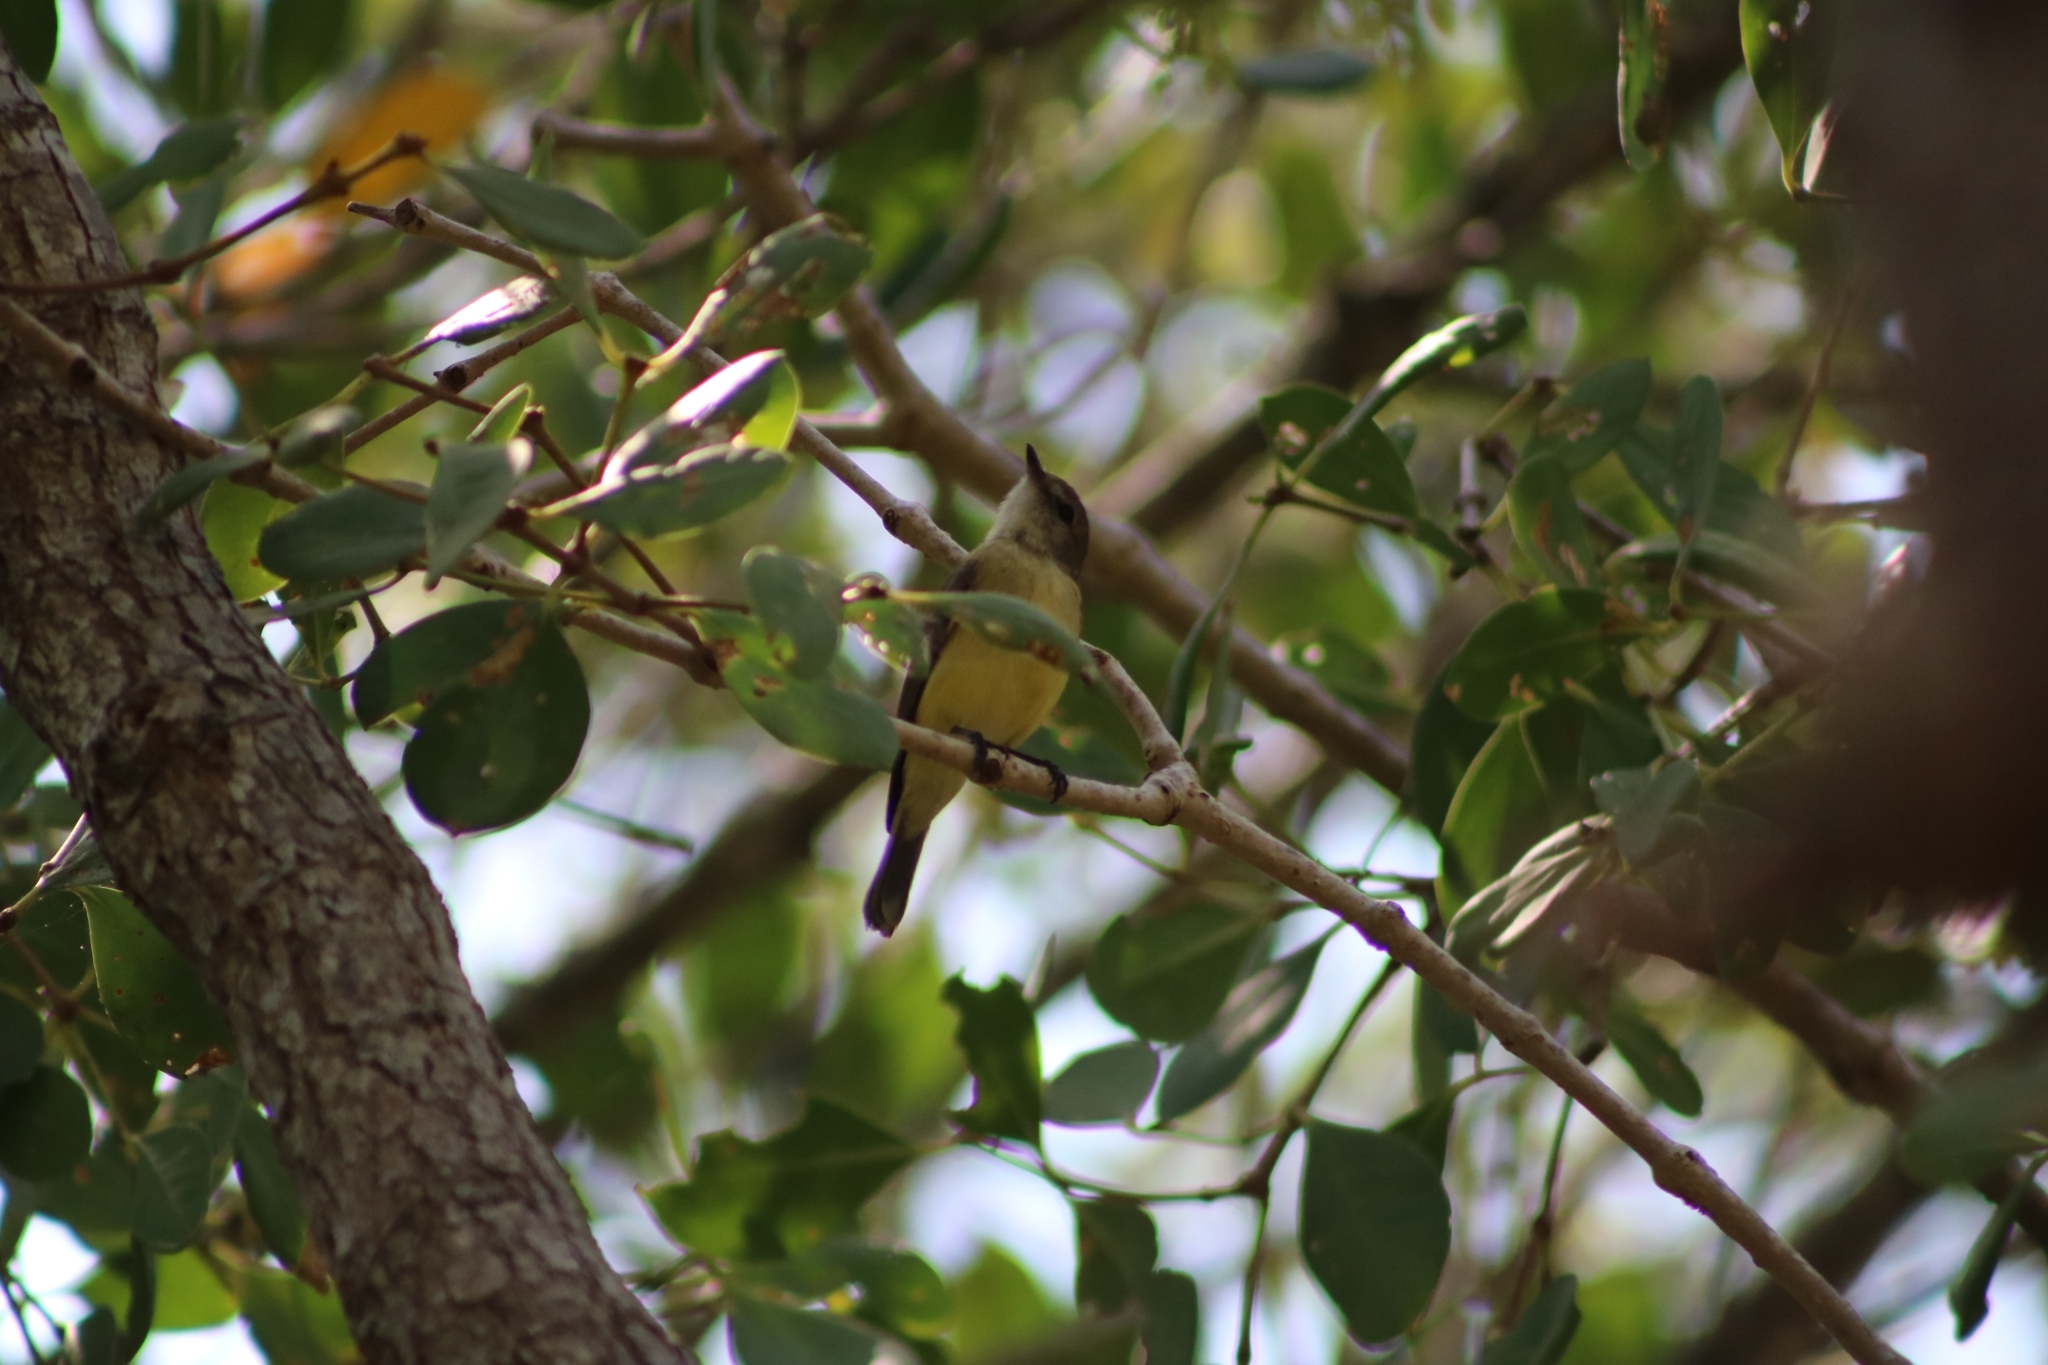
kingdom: Animalia
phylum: Chordata
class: Aves
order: Passeriformes
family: Petroicidae
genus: Microeca
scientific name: Microeca flavigaster
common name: Lemon-bellied flyrobin
